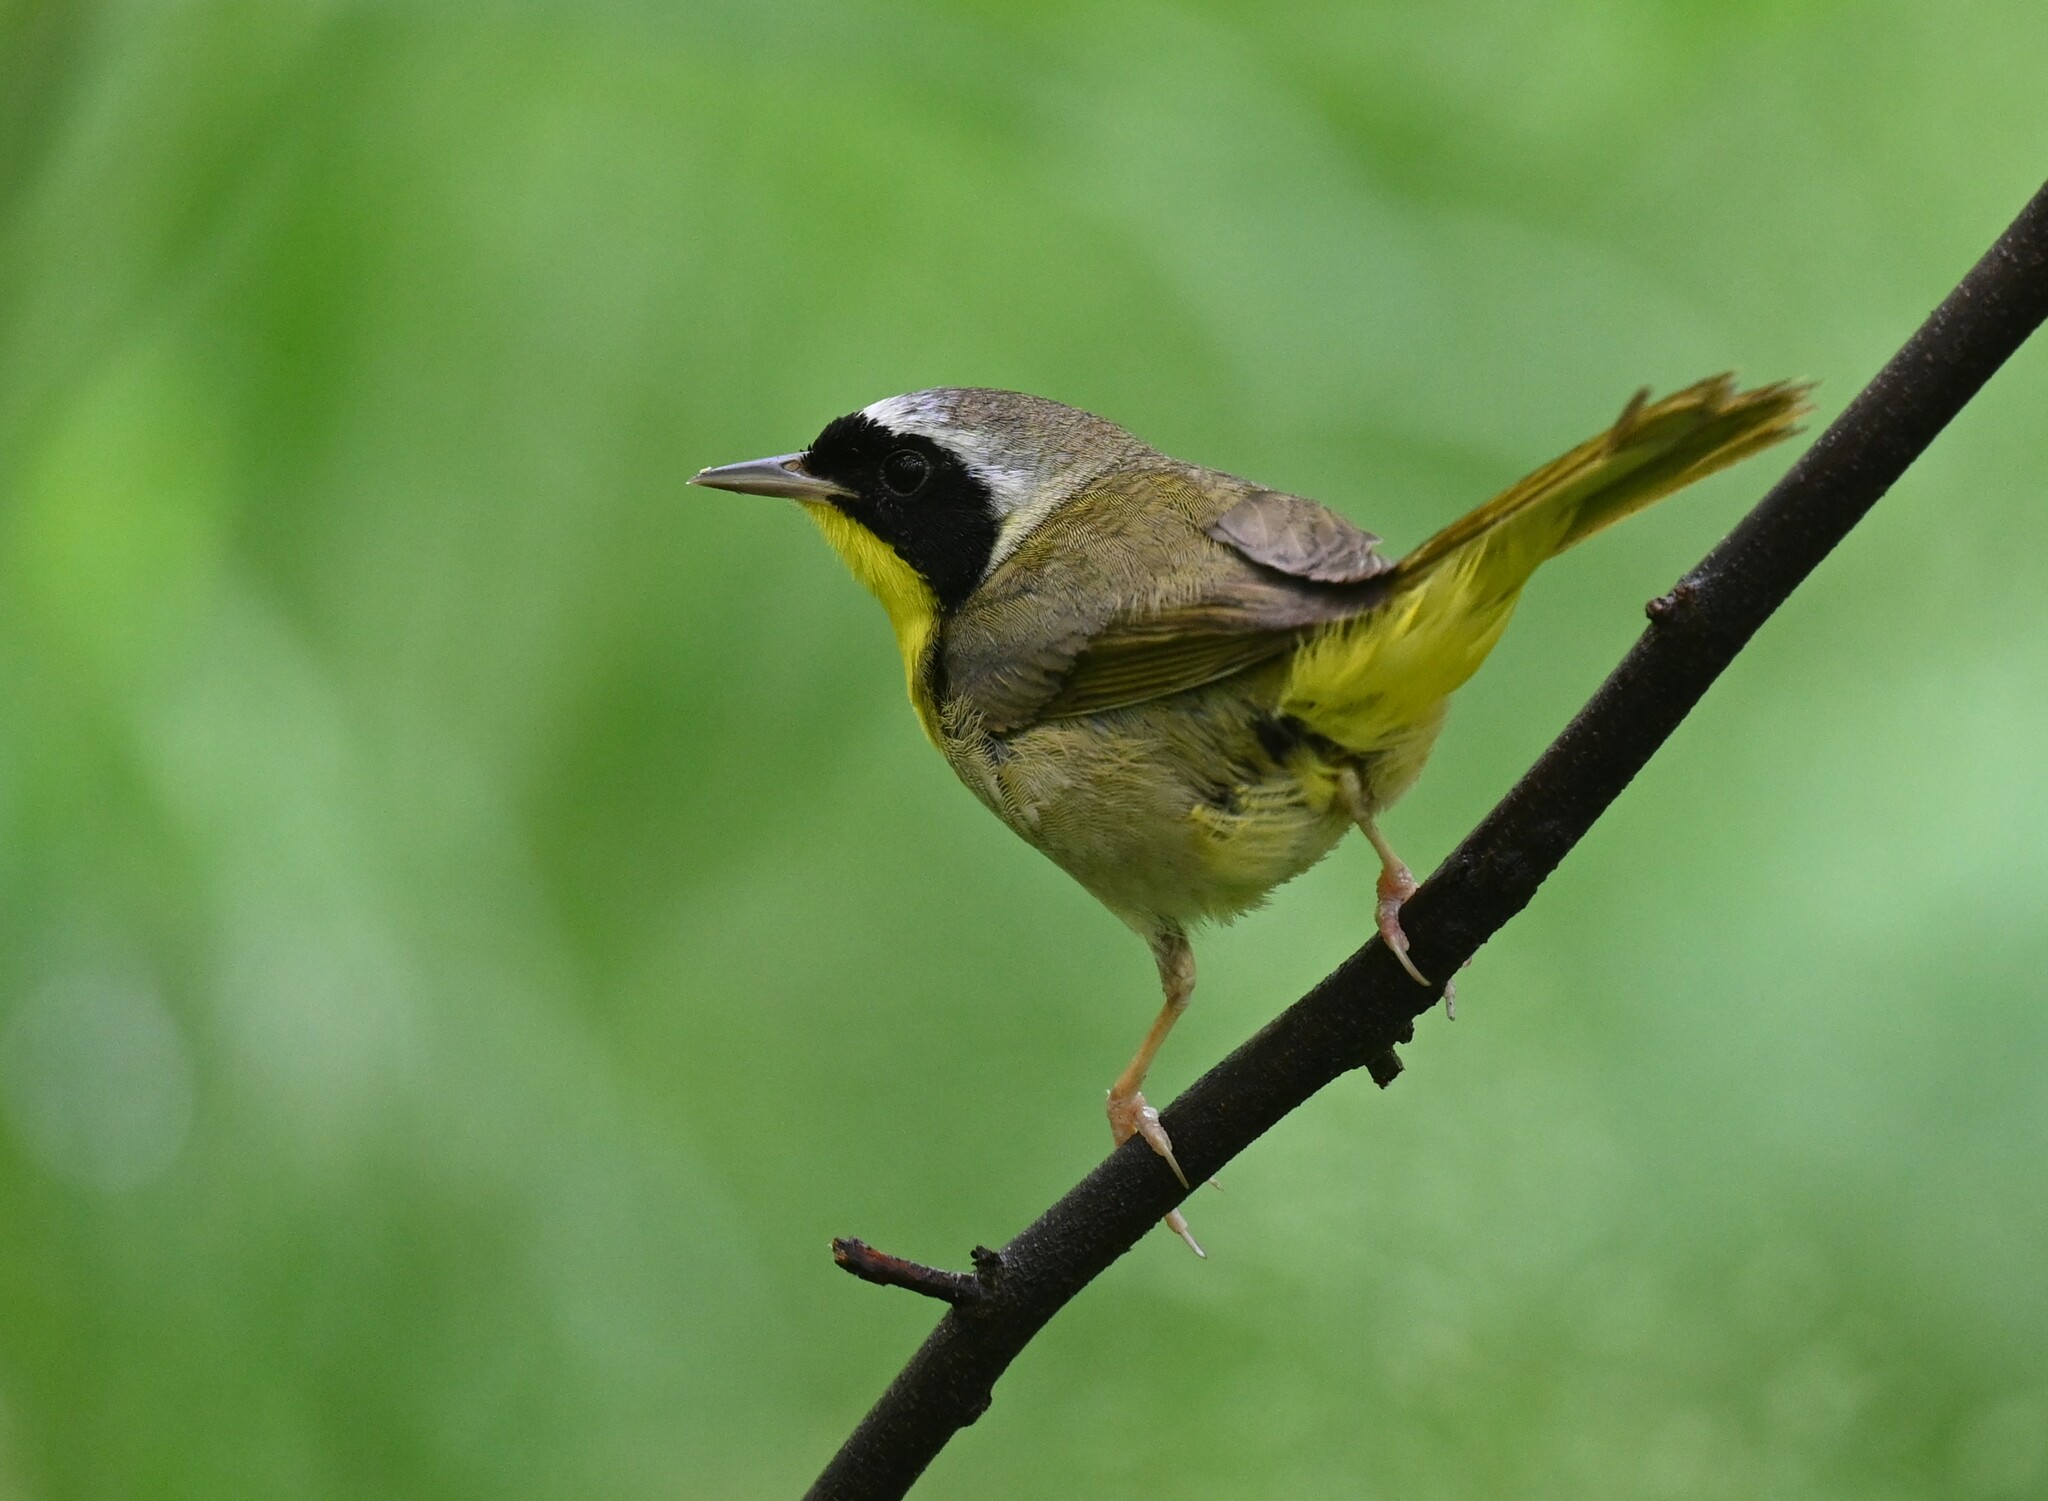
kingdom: Animalia
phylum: Chordata
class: Aves
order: Passeriformes
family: Parulidae
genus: Geothlypis
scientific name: Geothlypis trichas
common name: Common yellowthroat
